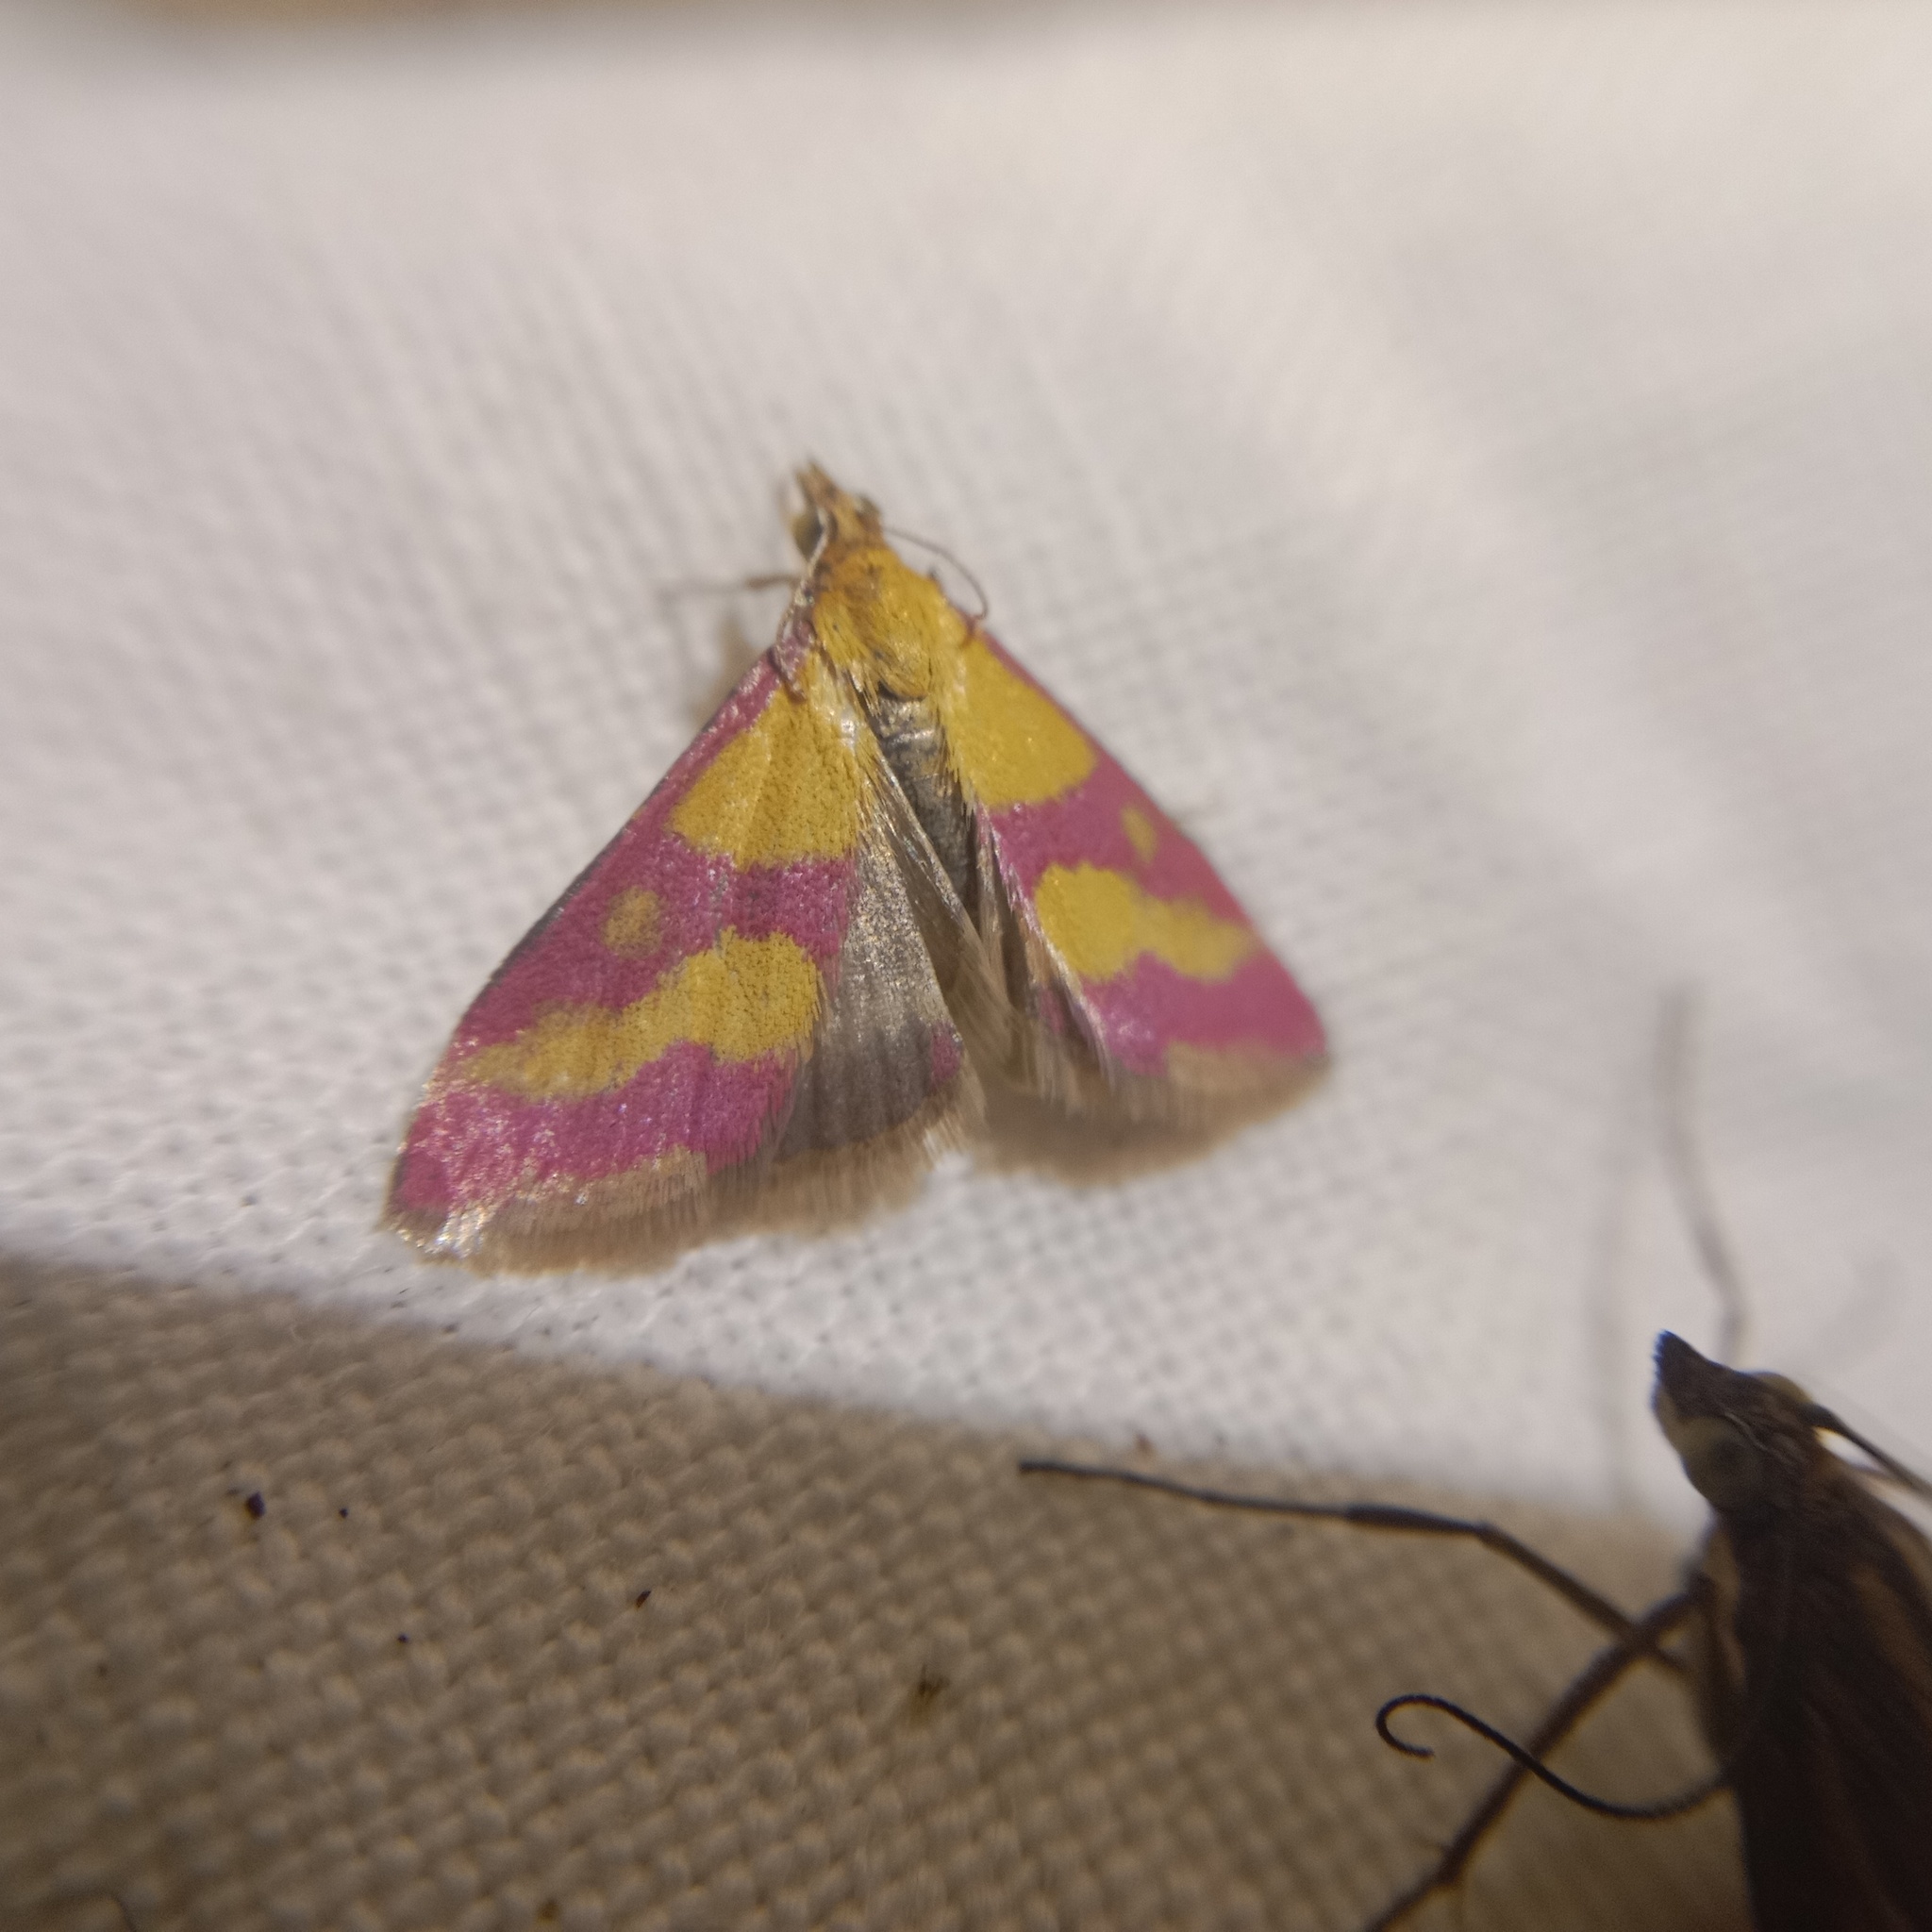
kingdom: Animalia
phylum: Arthropoda
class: Insecta
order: Lepidoptera
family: Crambidae
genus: Pyrausta
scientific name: Pyrausta sanguinalis
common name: Scarce crimson and gold
